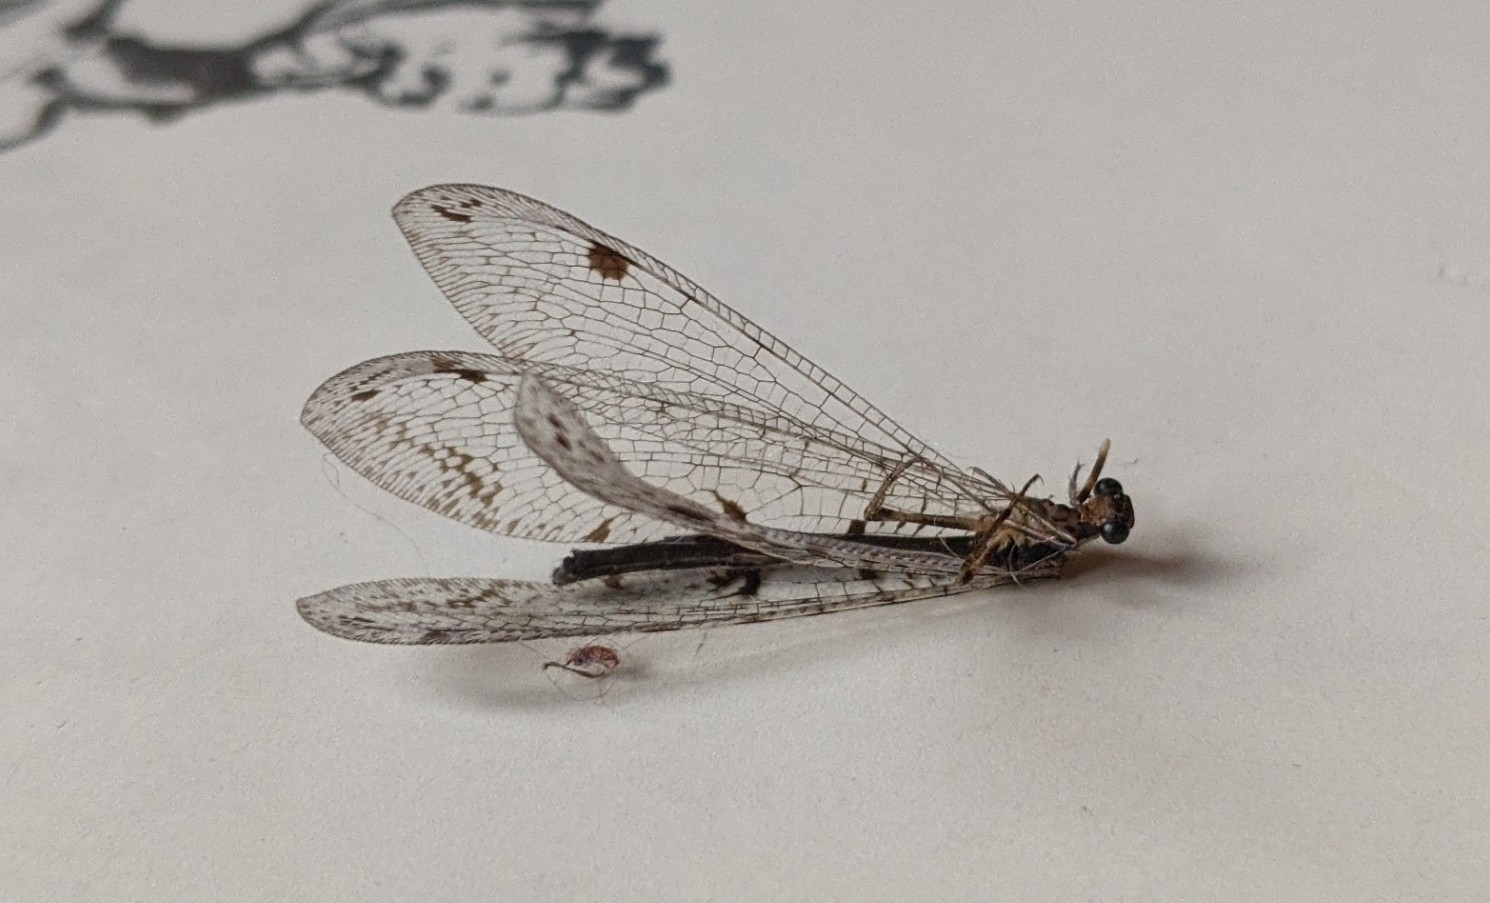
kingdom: Animalia
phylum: Arthropoda
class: Insecta
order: Neuroptera
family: Myrmeleontidae
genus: Dendroleon
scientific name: Dendroleon speciosus
